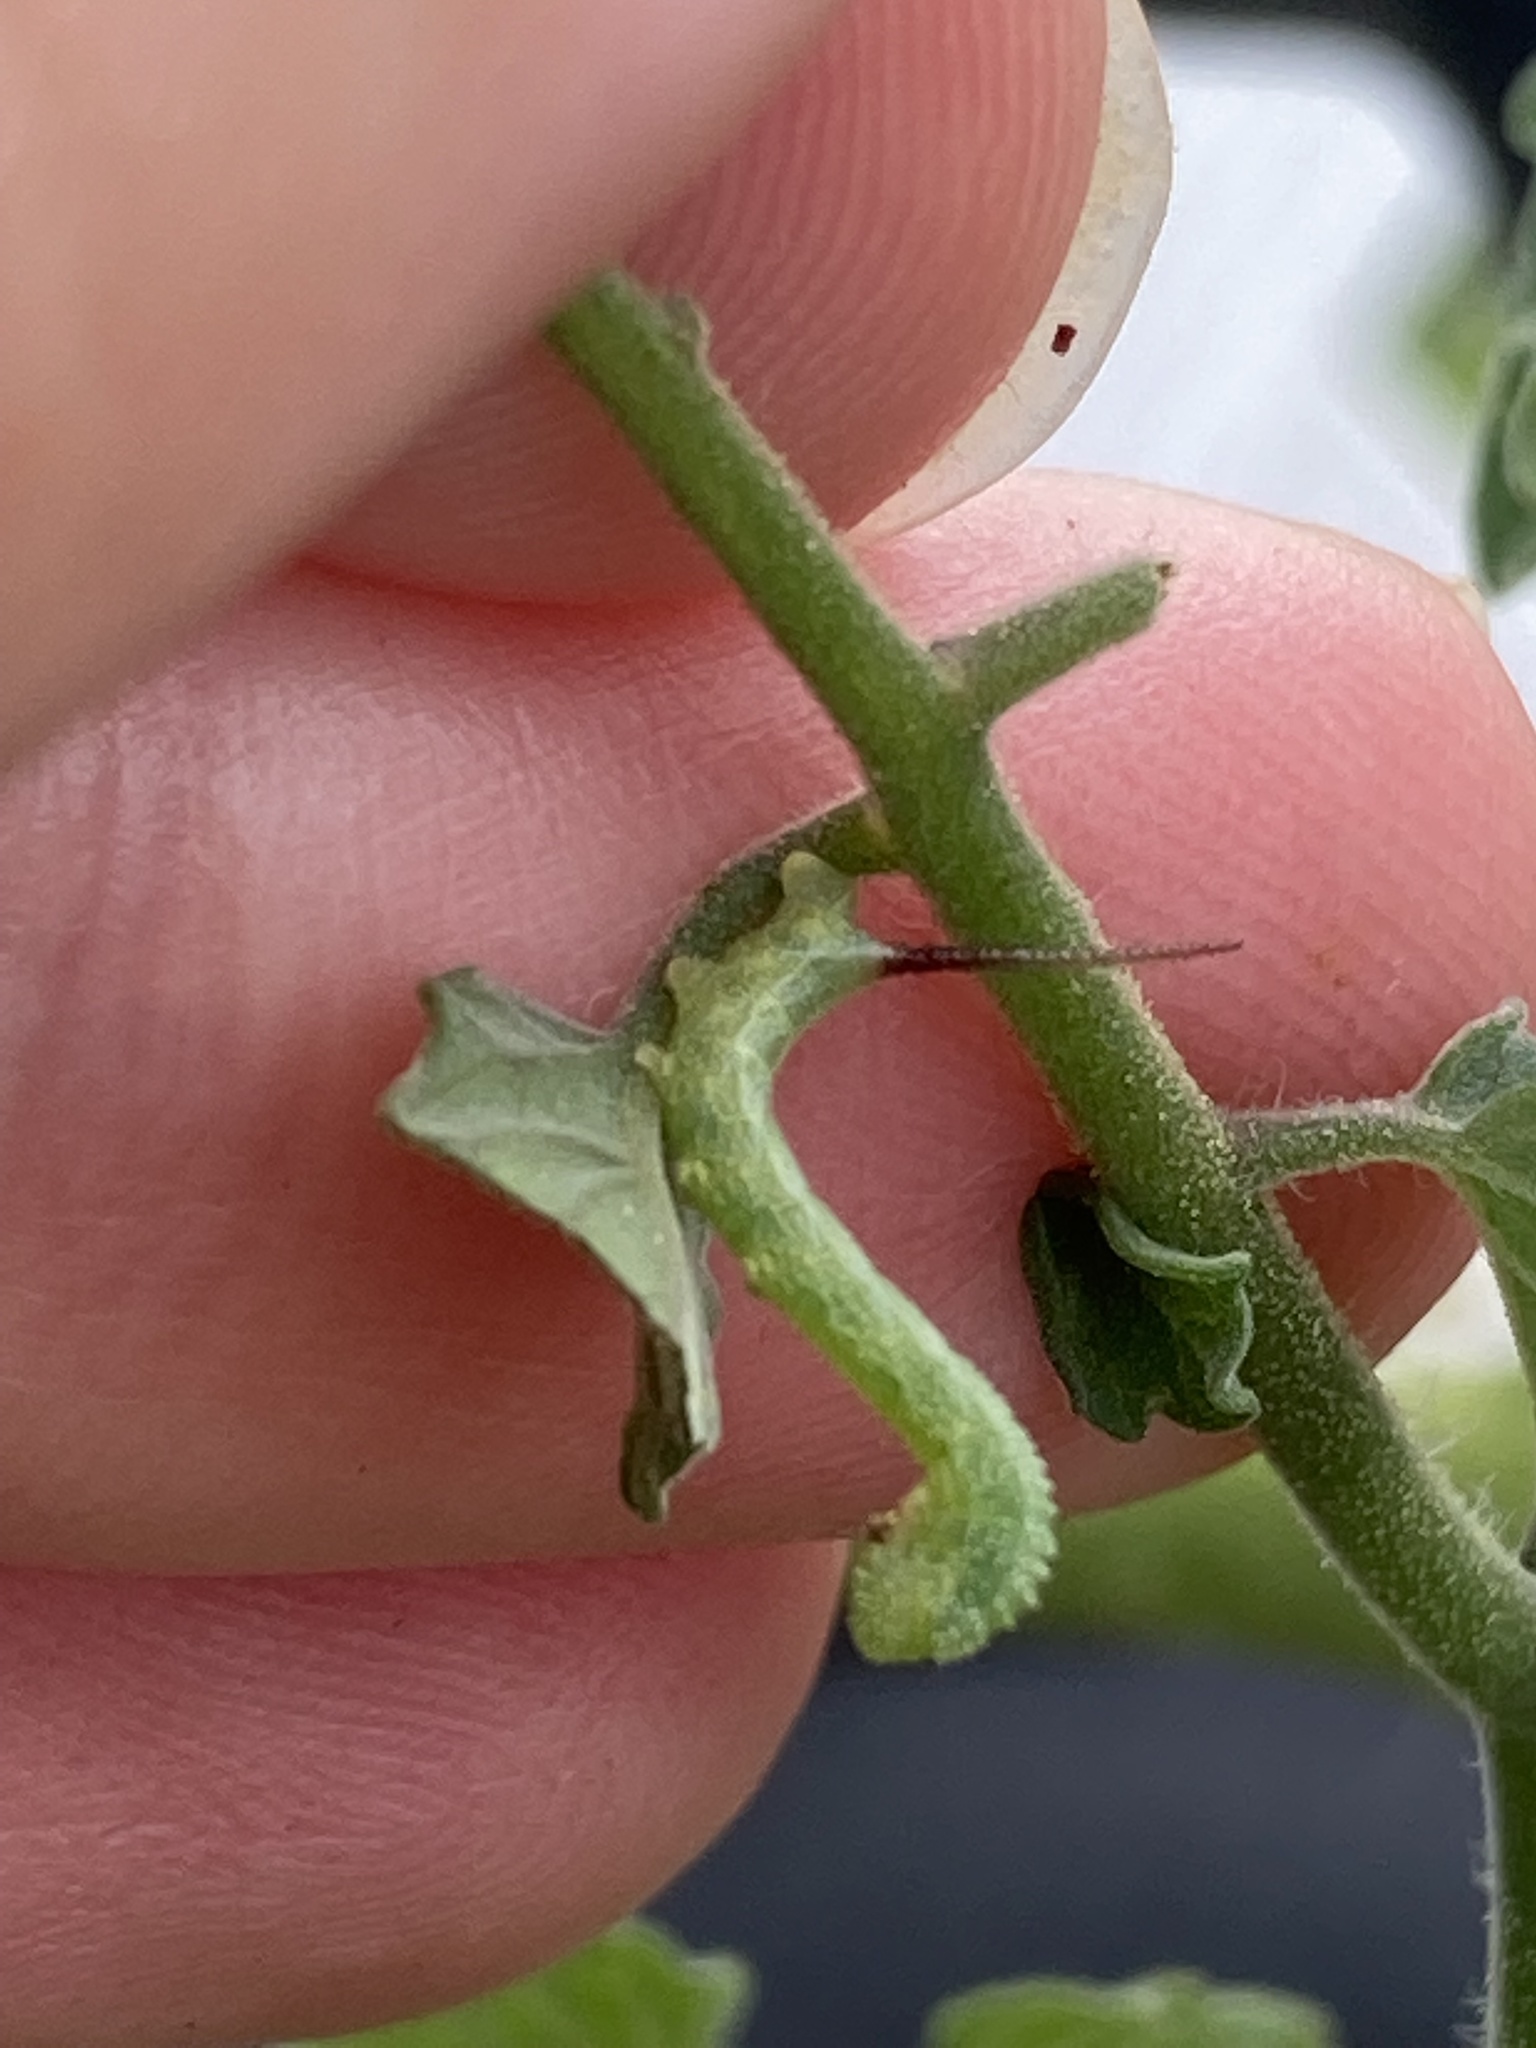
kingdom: Animalia
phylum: Arthropoda
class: Insecta
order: Lepidoptera
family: Sphingidae
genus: Manduca
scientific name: Manduca sexta
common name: Carolina sphinx
